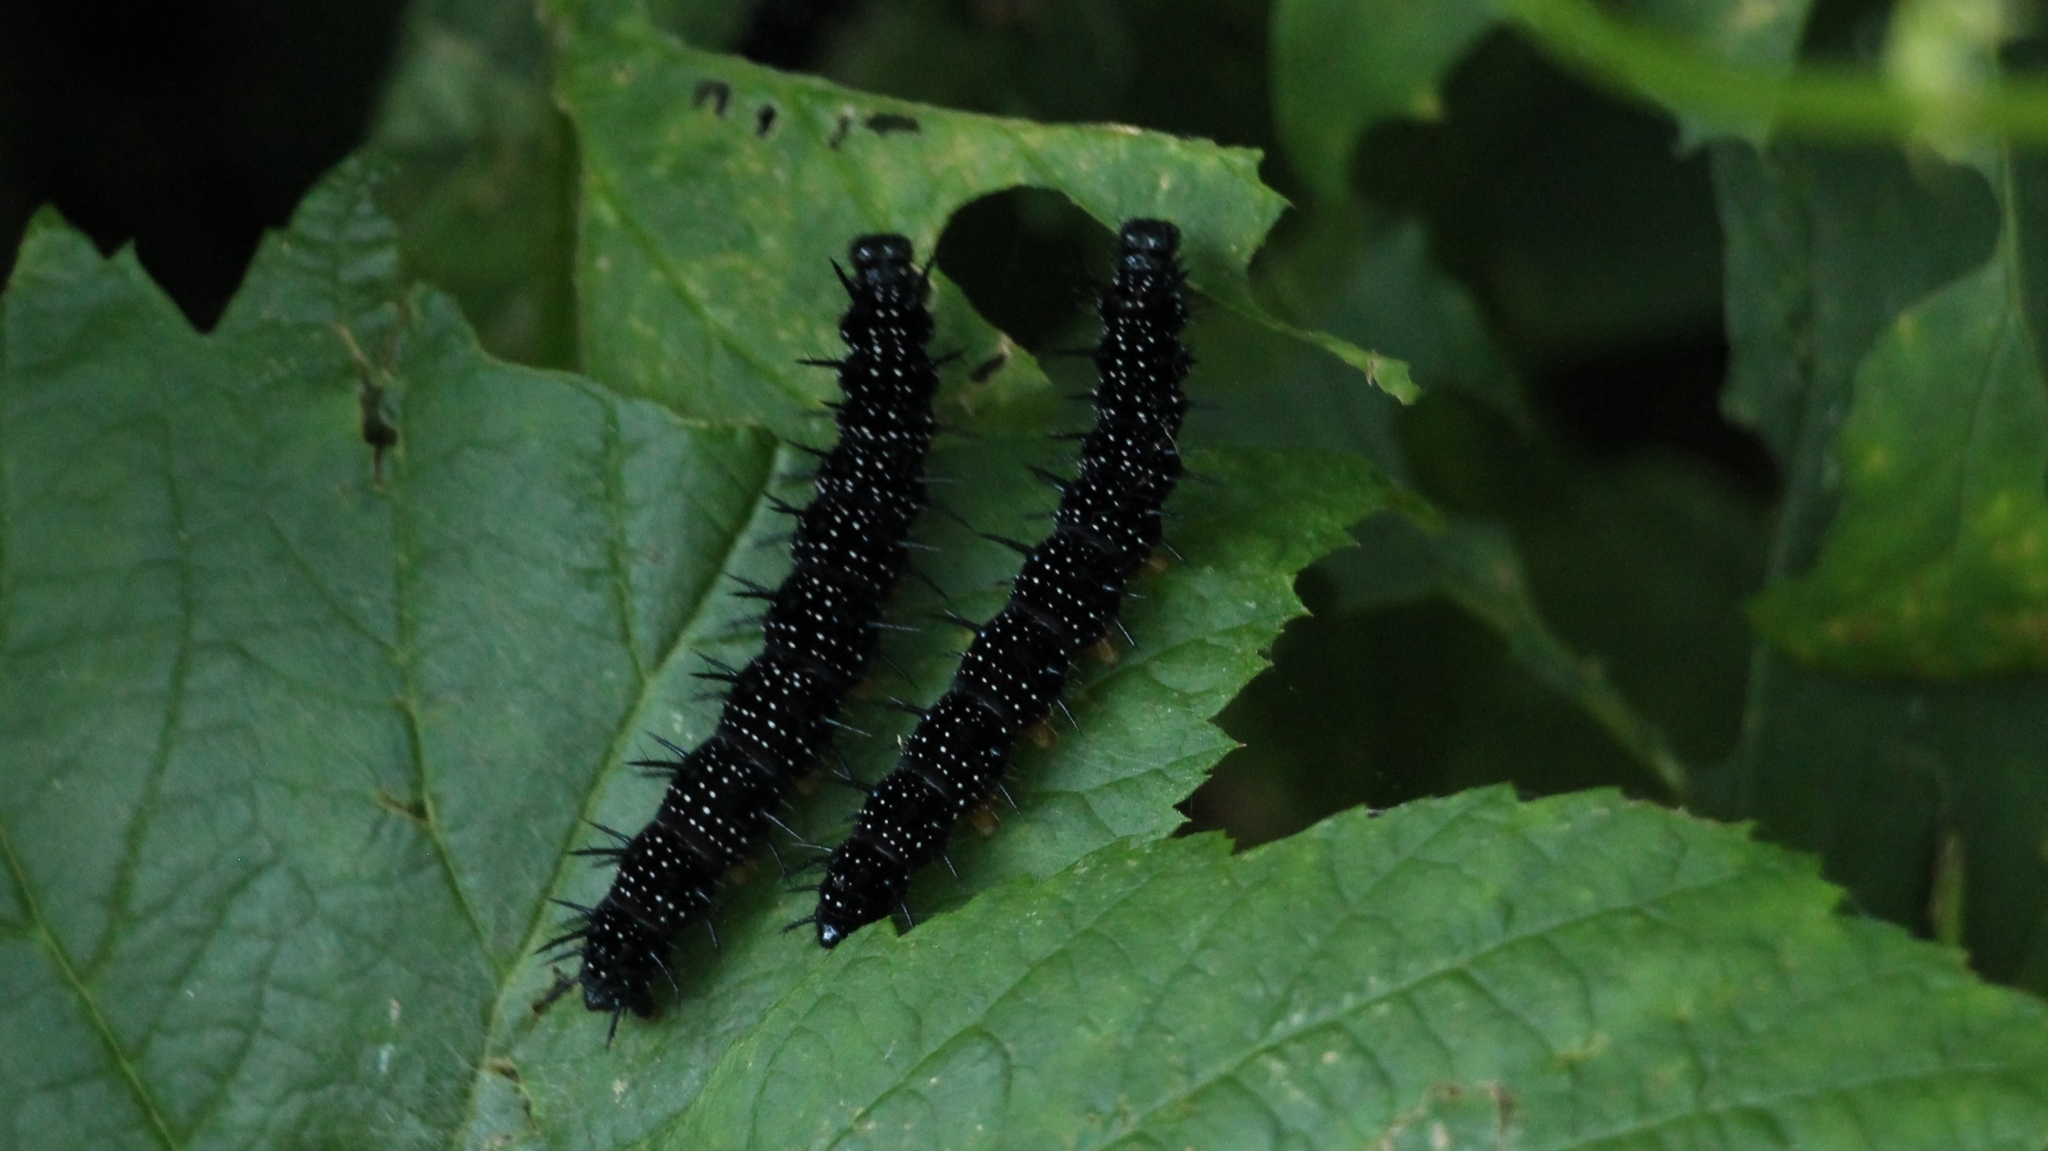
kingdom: Animalia
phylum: Arthropoda
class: Insecta
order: Lepidoptera
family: Nymphalidae
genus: Aglais
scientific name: Aglais io
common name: Peacock
